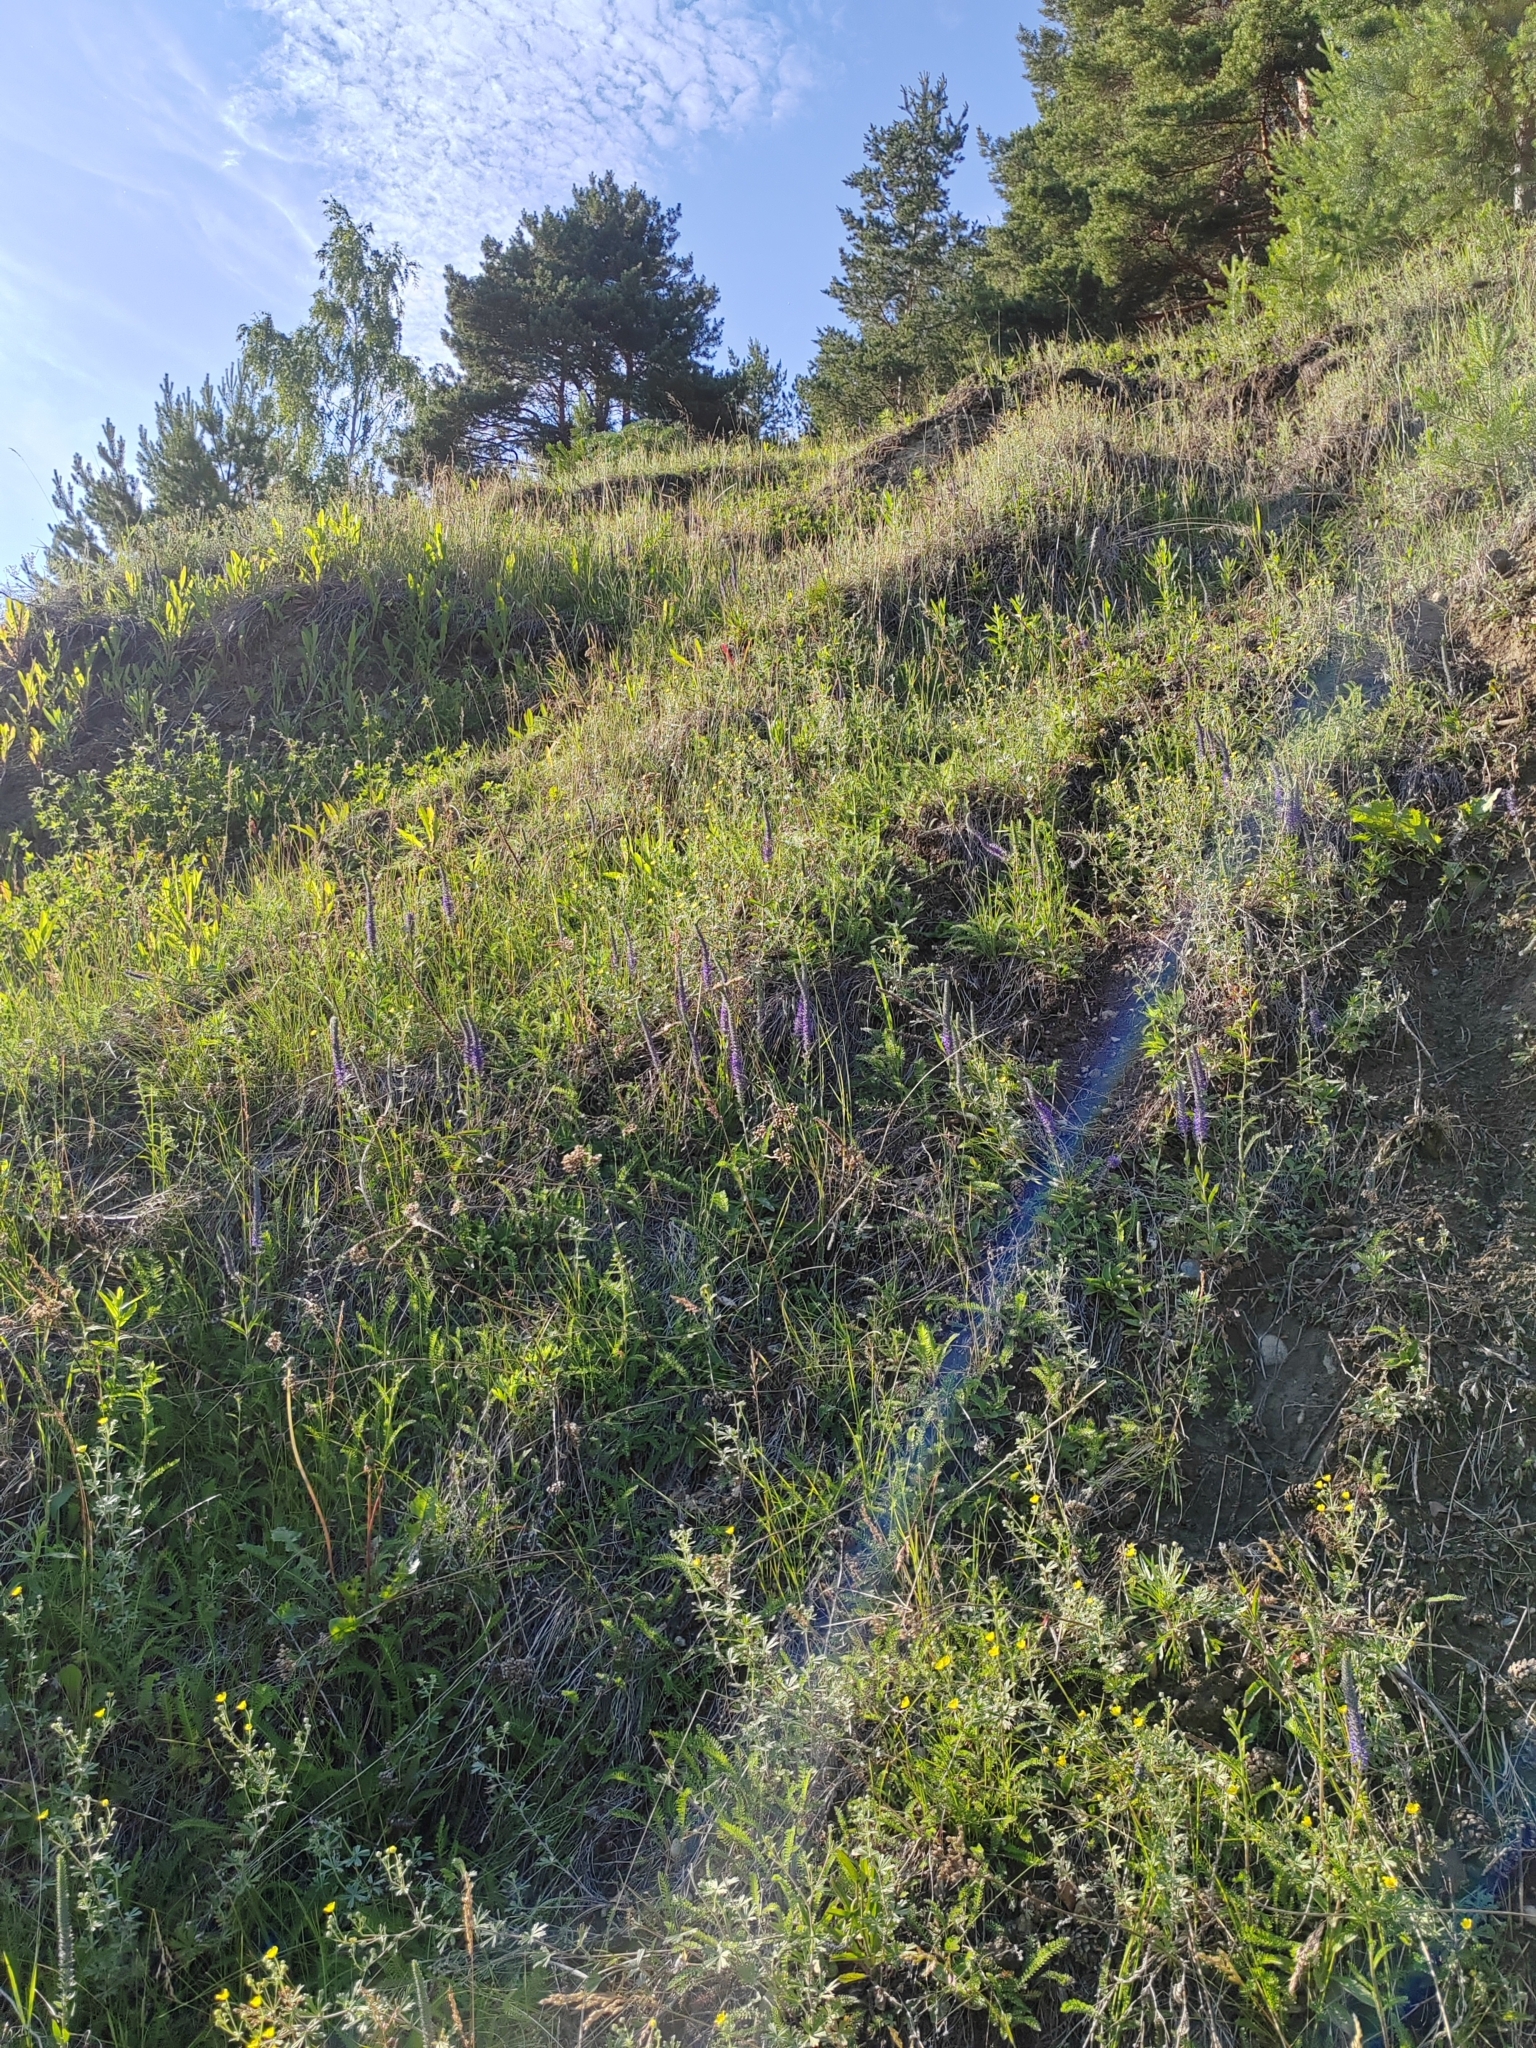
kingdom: Plantae
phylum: Tracheophyta
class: Magnoliopsida
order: Lamiales
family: Plantaginaceae
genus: Veronica
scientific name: Veronica spicata
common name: Spiked speedwell
